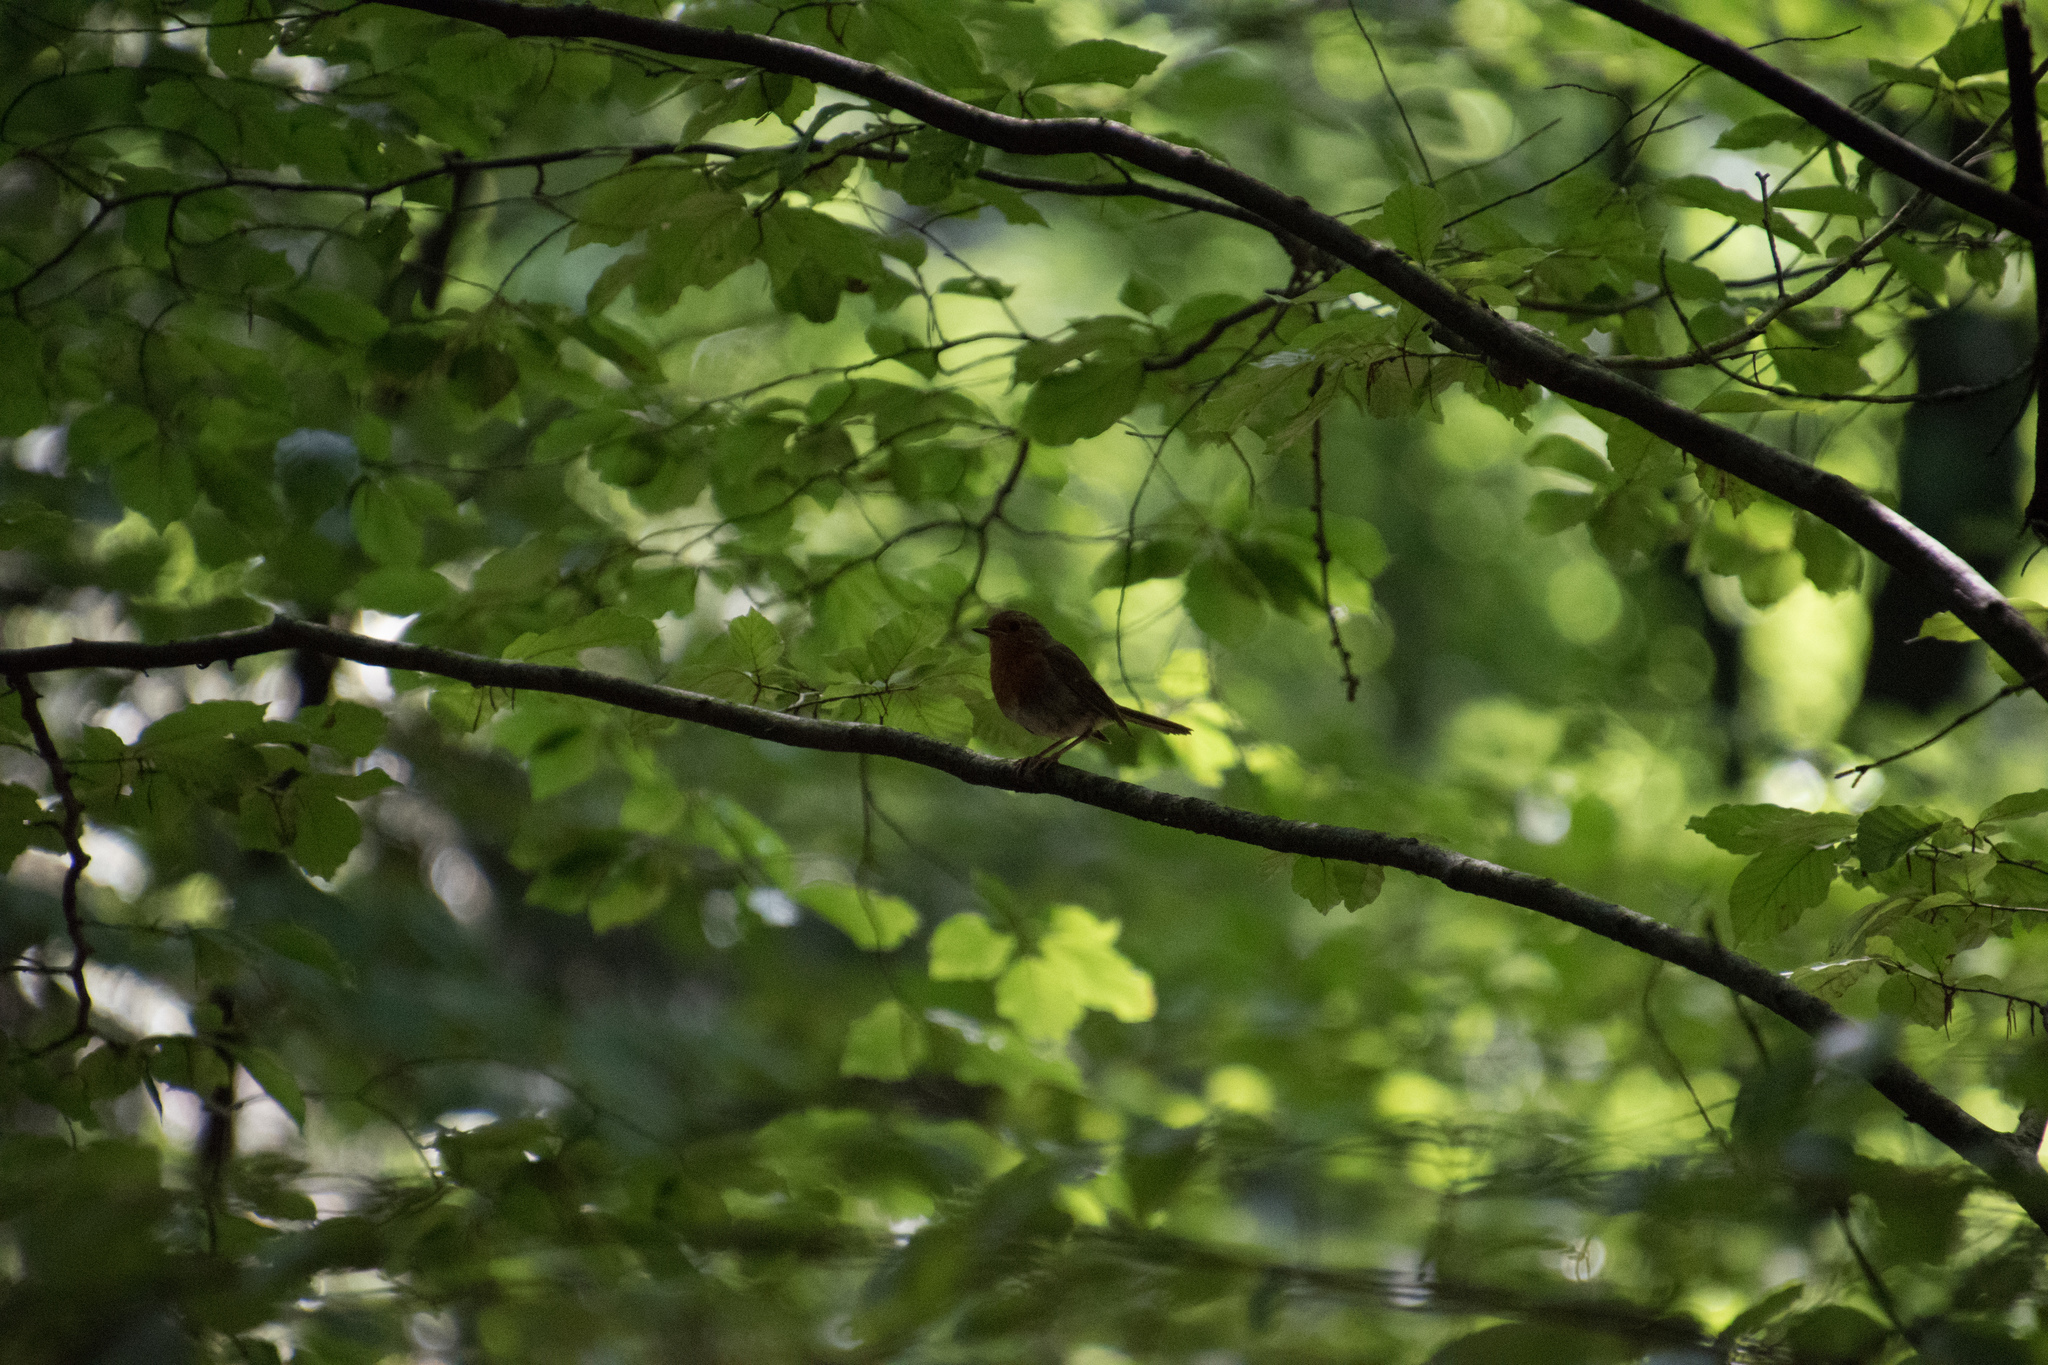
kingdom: Animalia
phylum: Chordata
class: Aves
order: Passeriformes
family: Muscicapidae
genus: Erithacus
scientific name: Erithacus rubecula
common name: European robin
